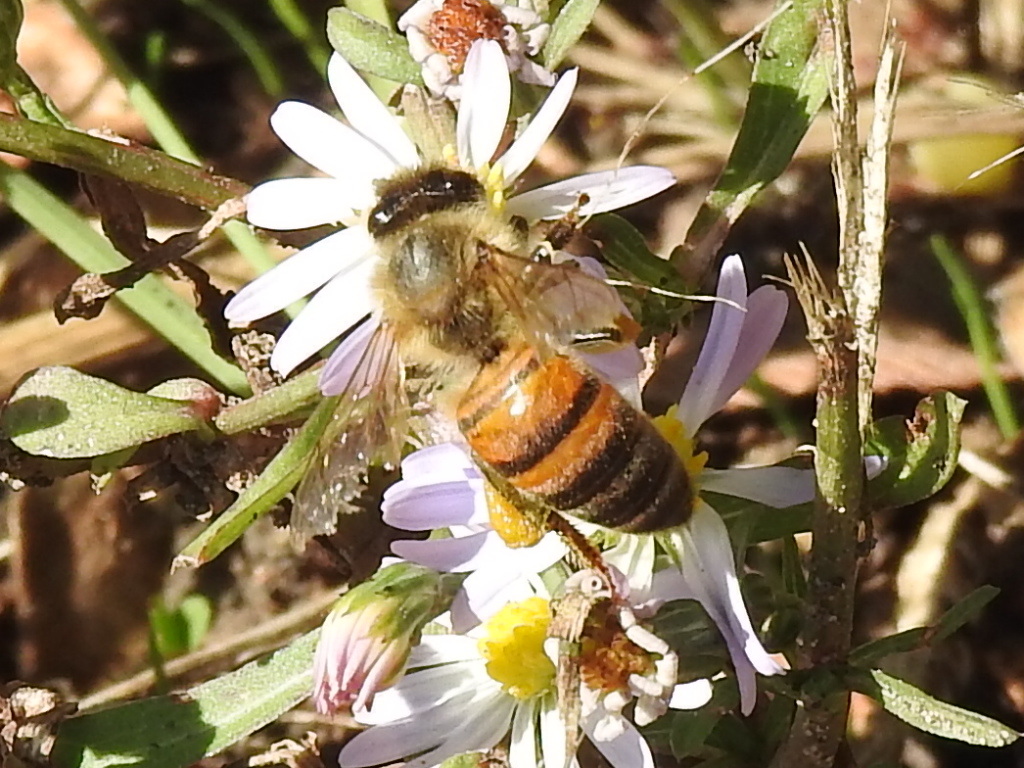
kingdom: Animalia
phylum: Arthropoda
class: Insecta
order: Hymenoptera
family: Apidae
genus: Apis
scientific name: Apis mellifera
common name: Honey bee
